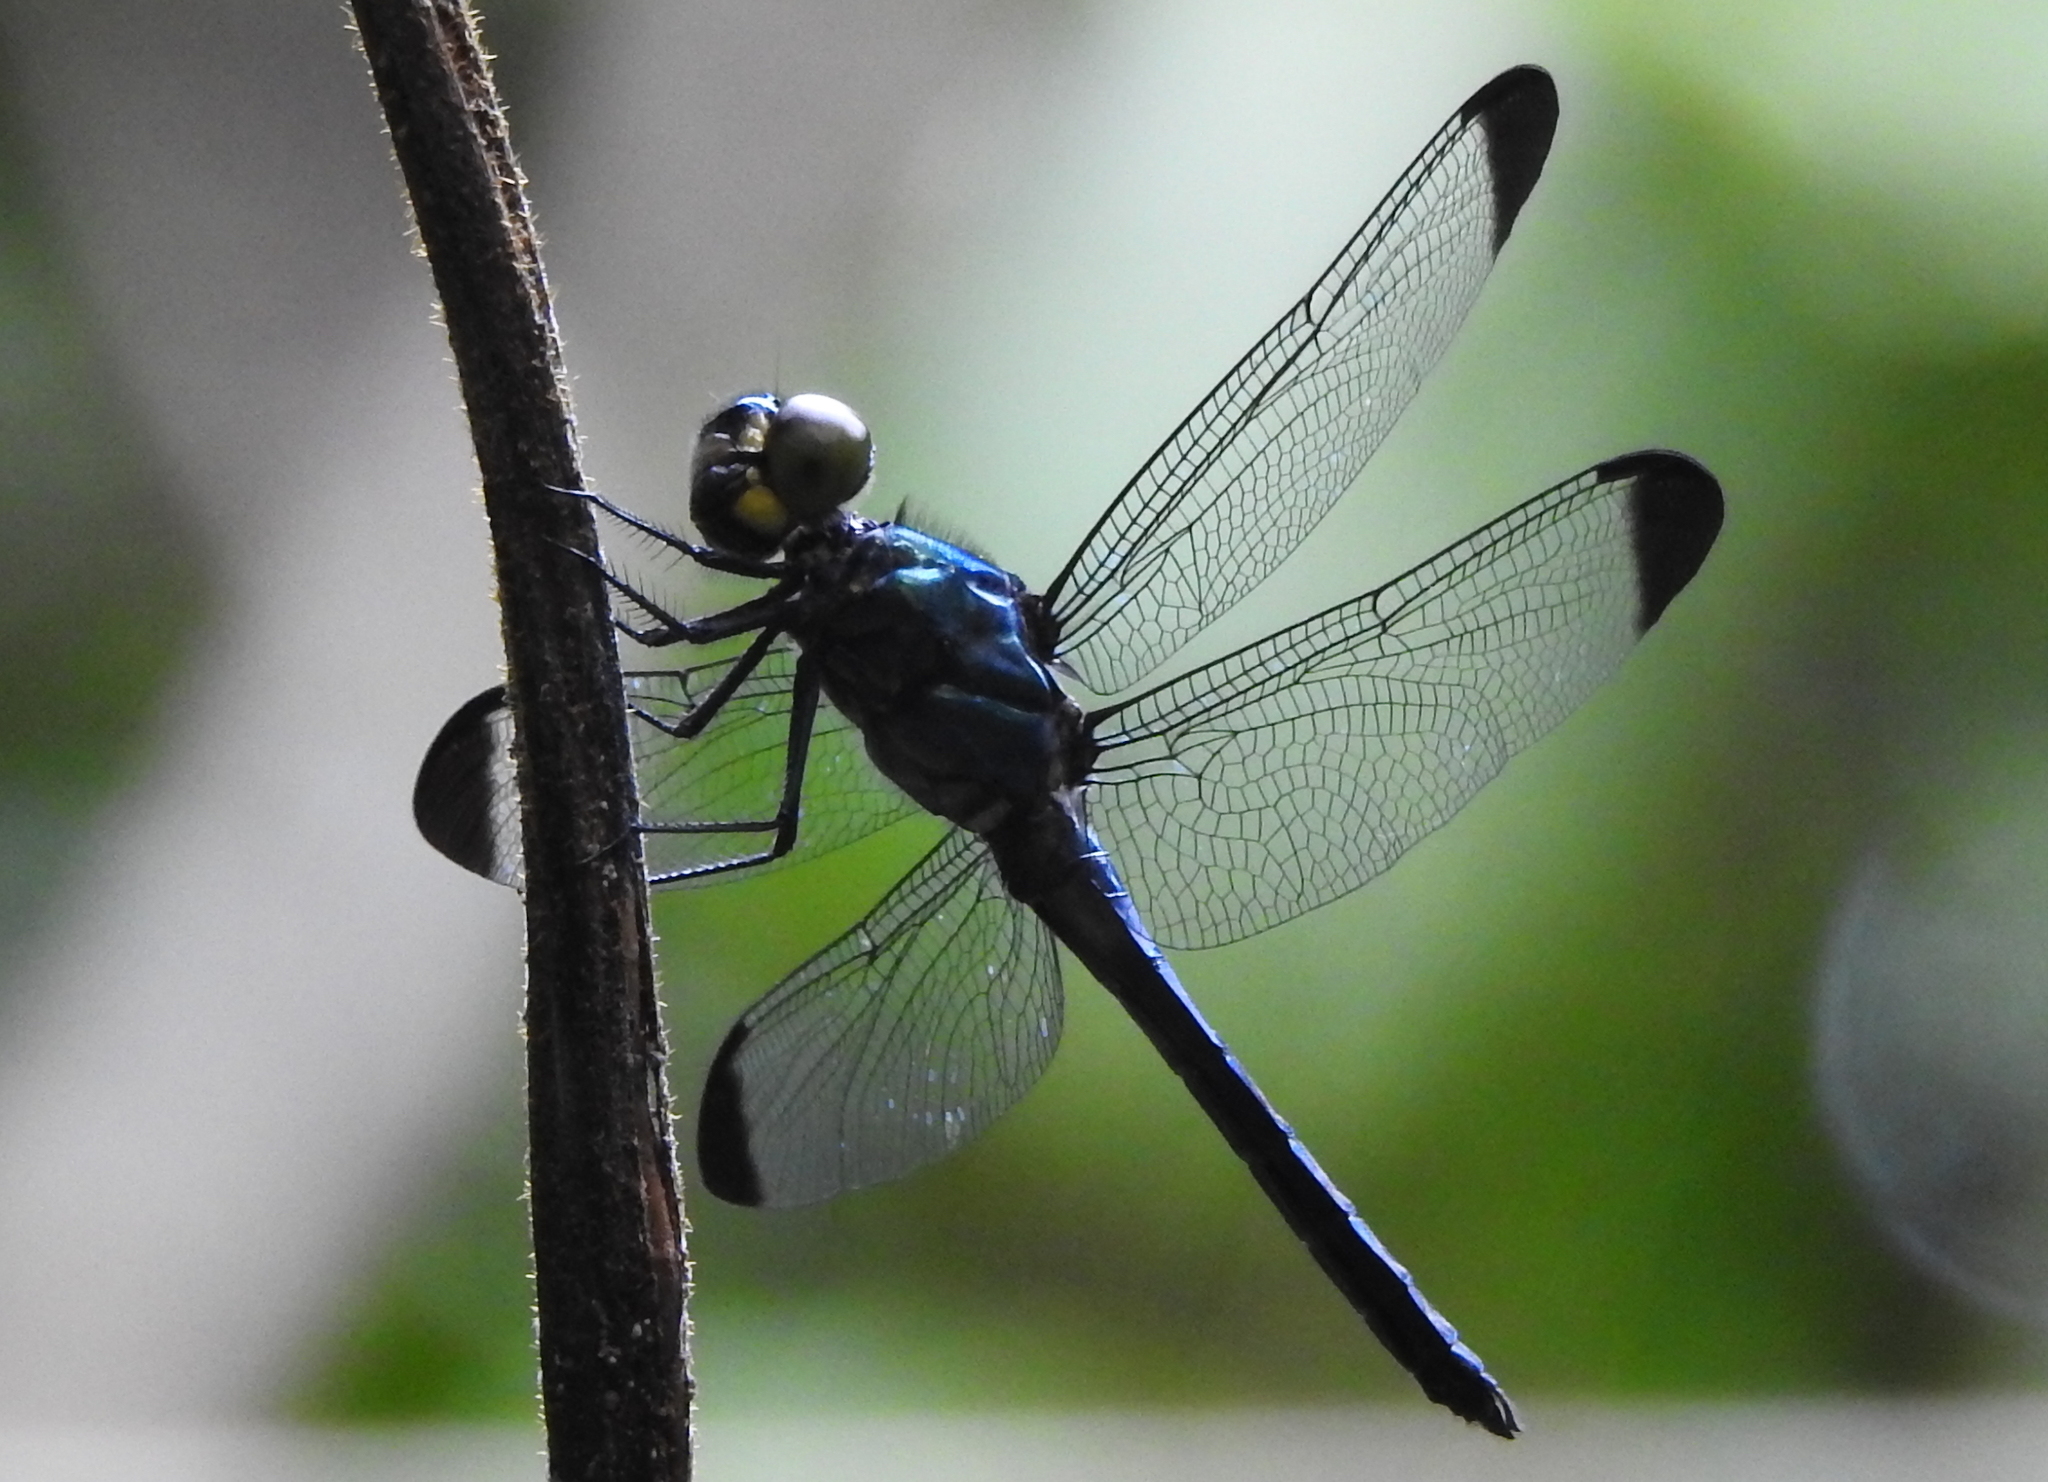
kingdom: Animalia
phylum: Arthropoda
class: Insecta
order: Odonata
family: Libellulidae
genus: Cratilla
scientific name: Cratilla metallica
